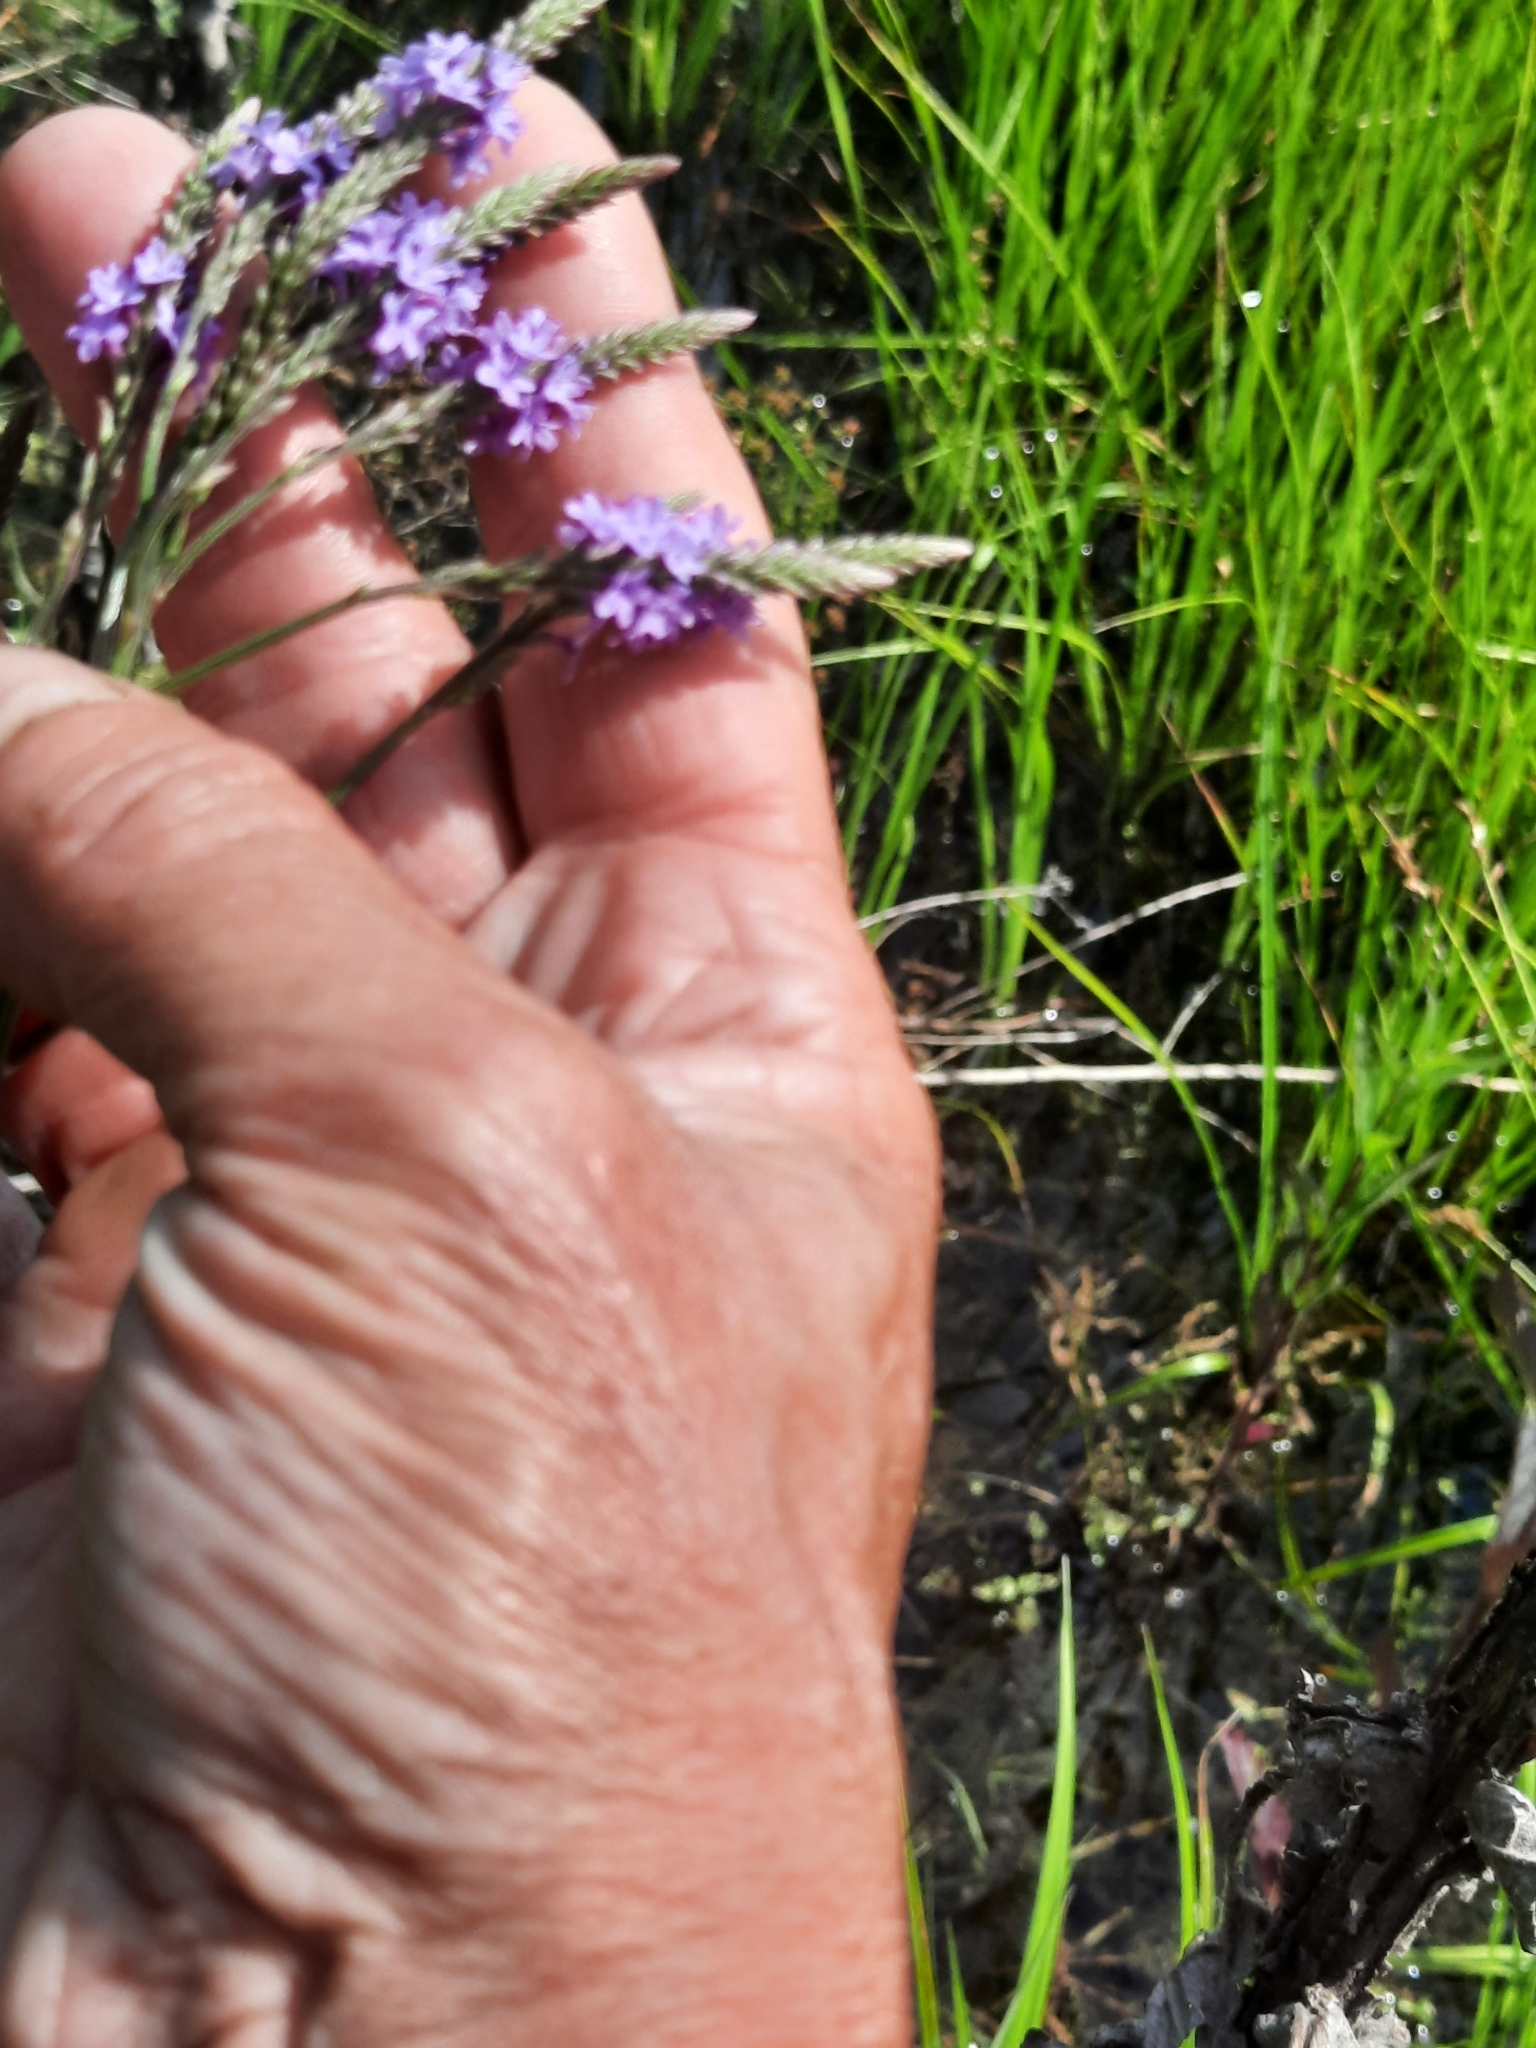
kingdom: Plantae
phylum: Tracheophyta
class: Magnoliopsida
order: Lamiales
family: Verbenaceae
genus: Verbena
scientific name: Verbena hastata
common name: American blue vervain
